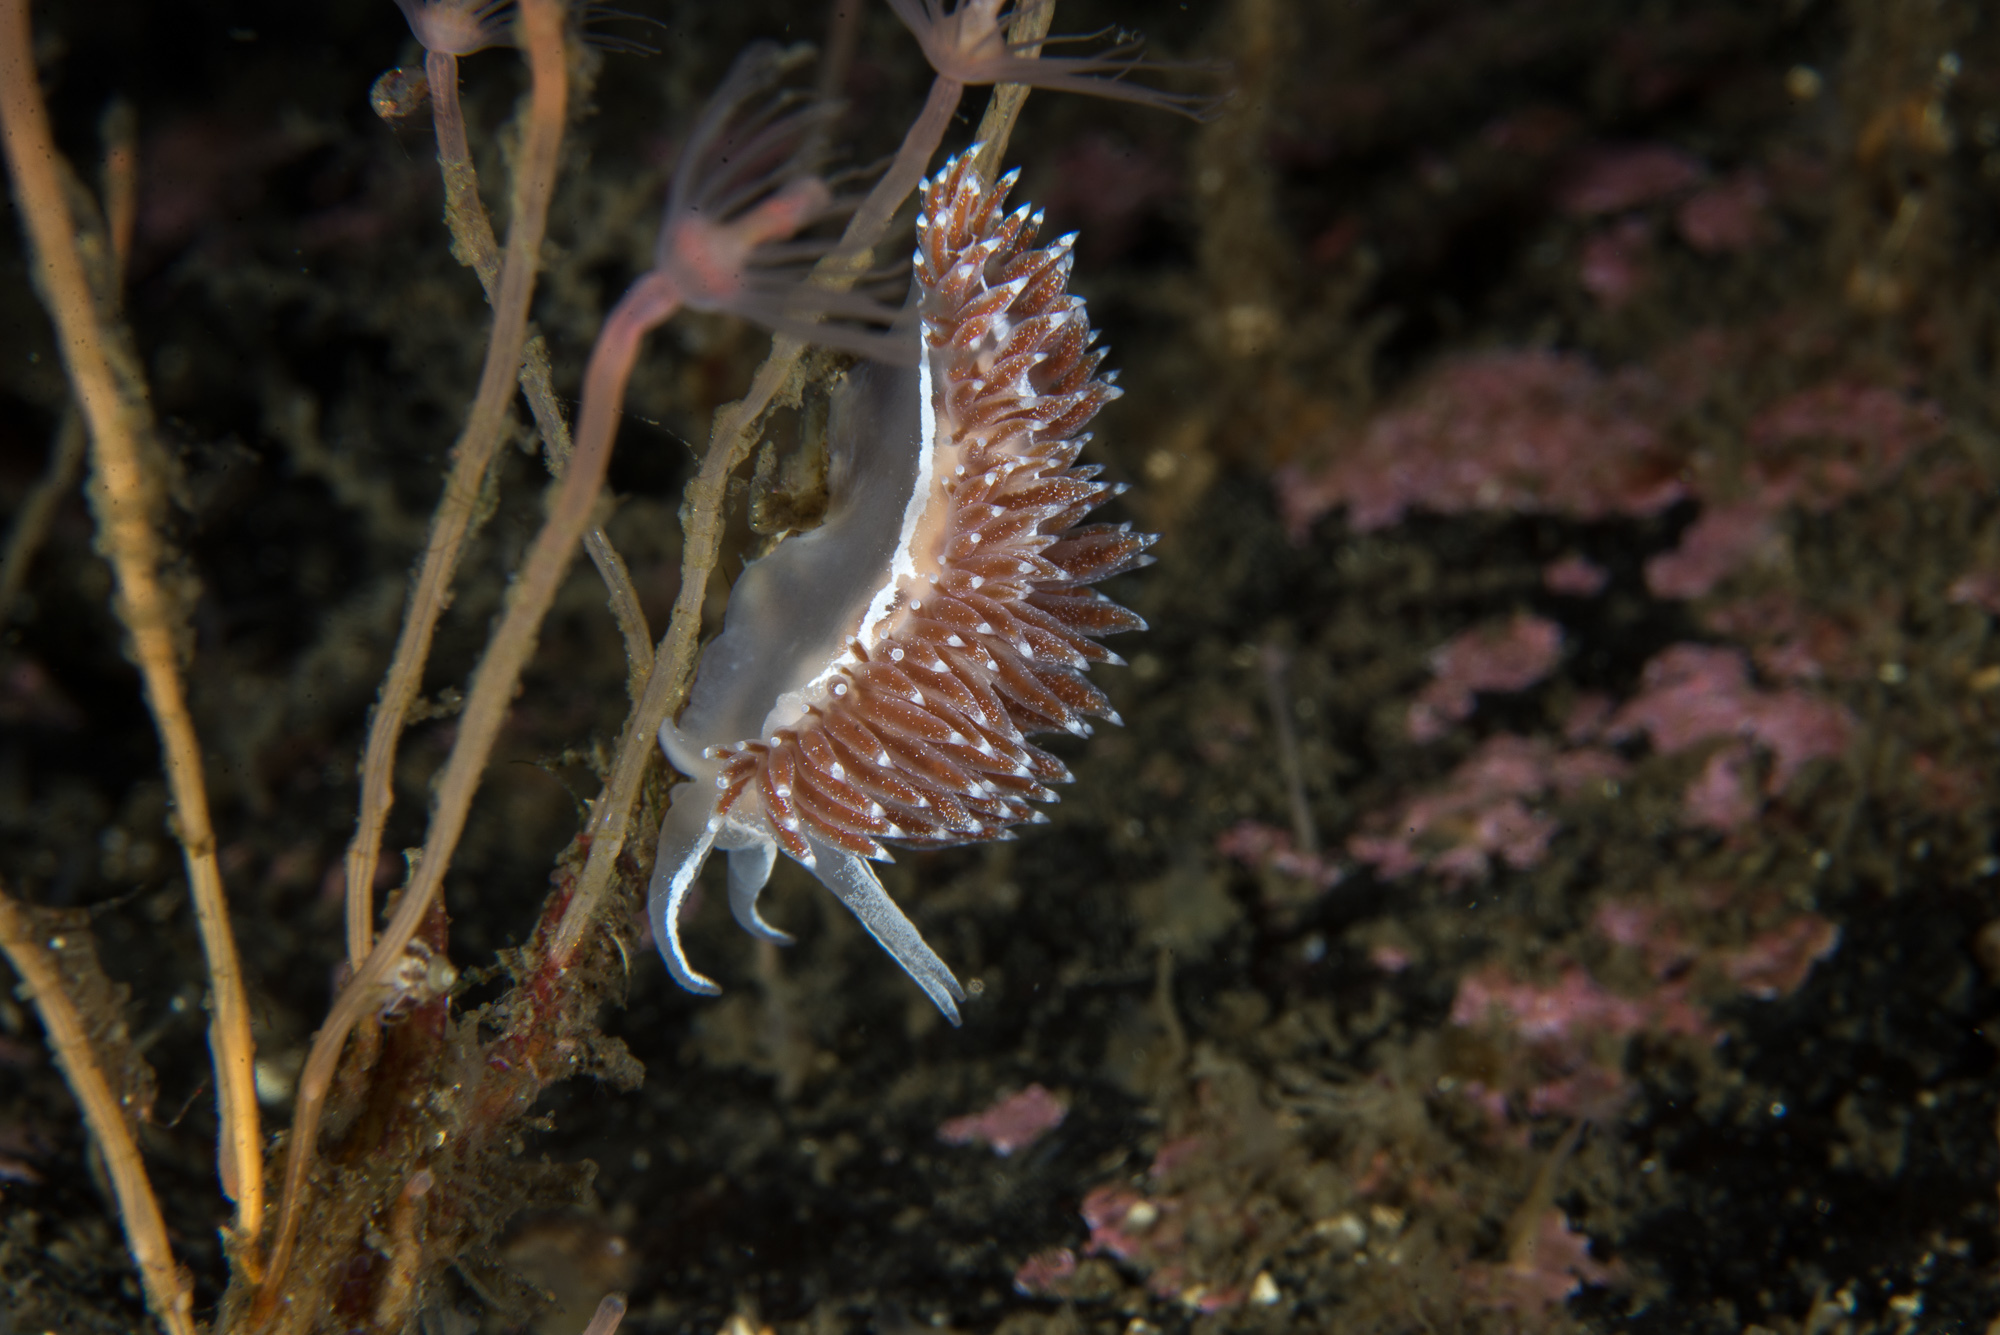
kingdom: Animalia
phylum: Mollusca
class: Gastropoda
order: Nudibranchia
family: Coryphellidae
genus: Coryphella
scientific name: Coryphella monicae
